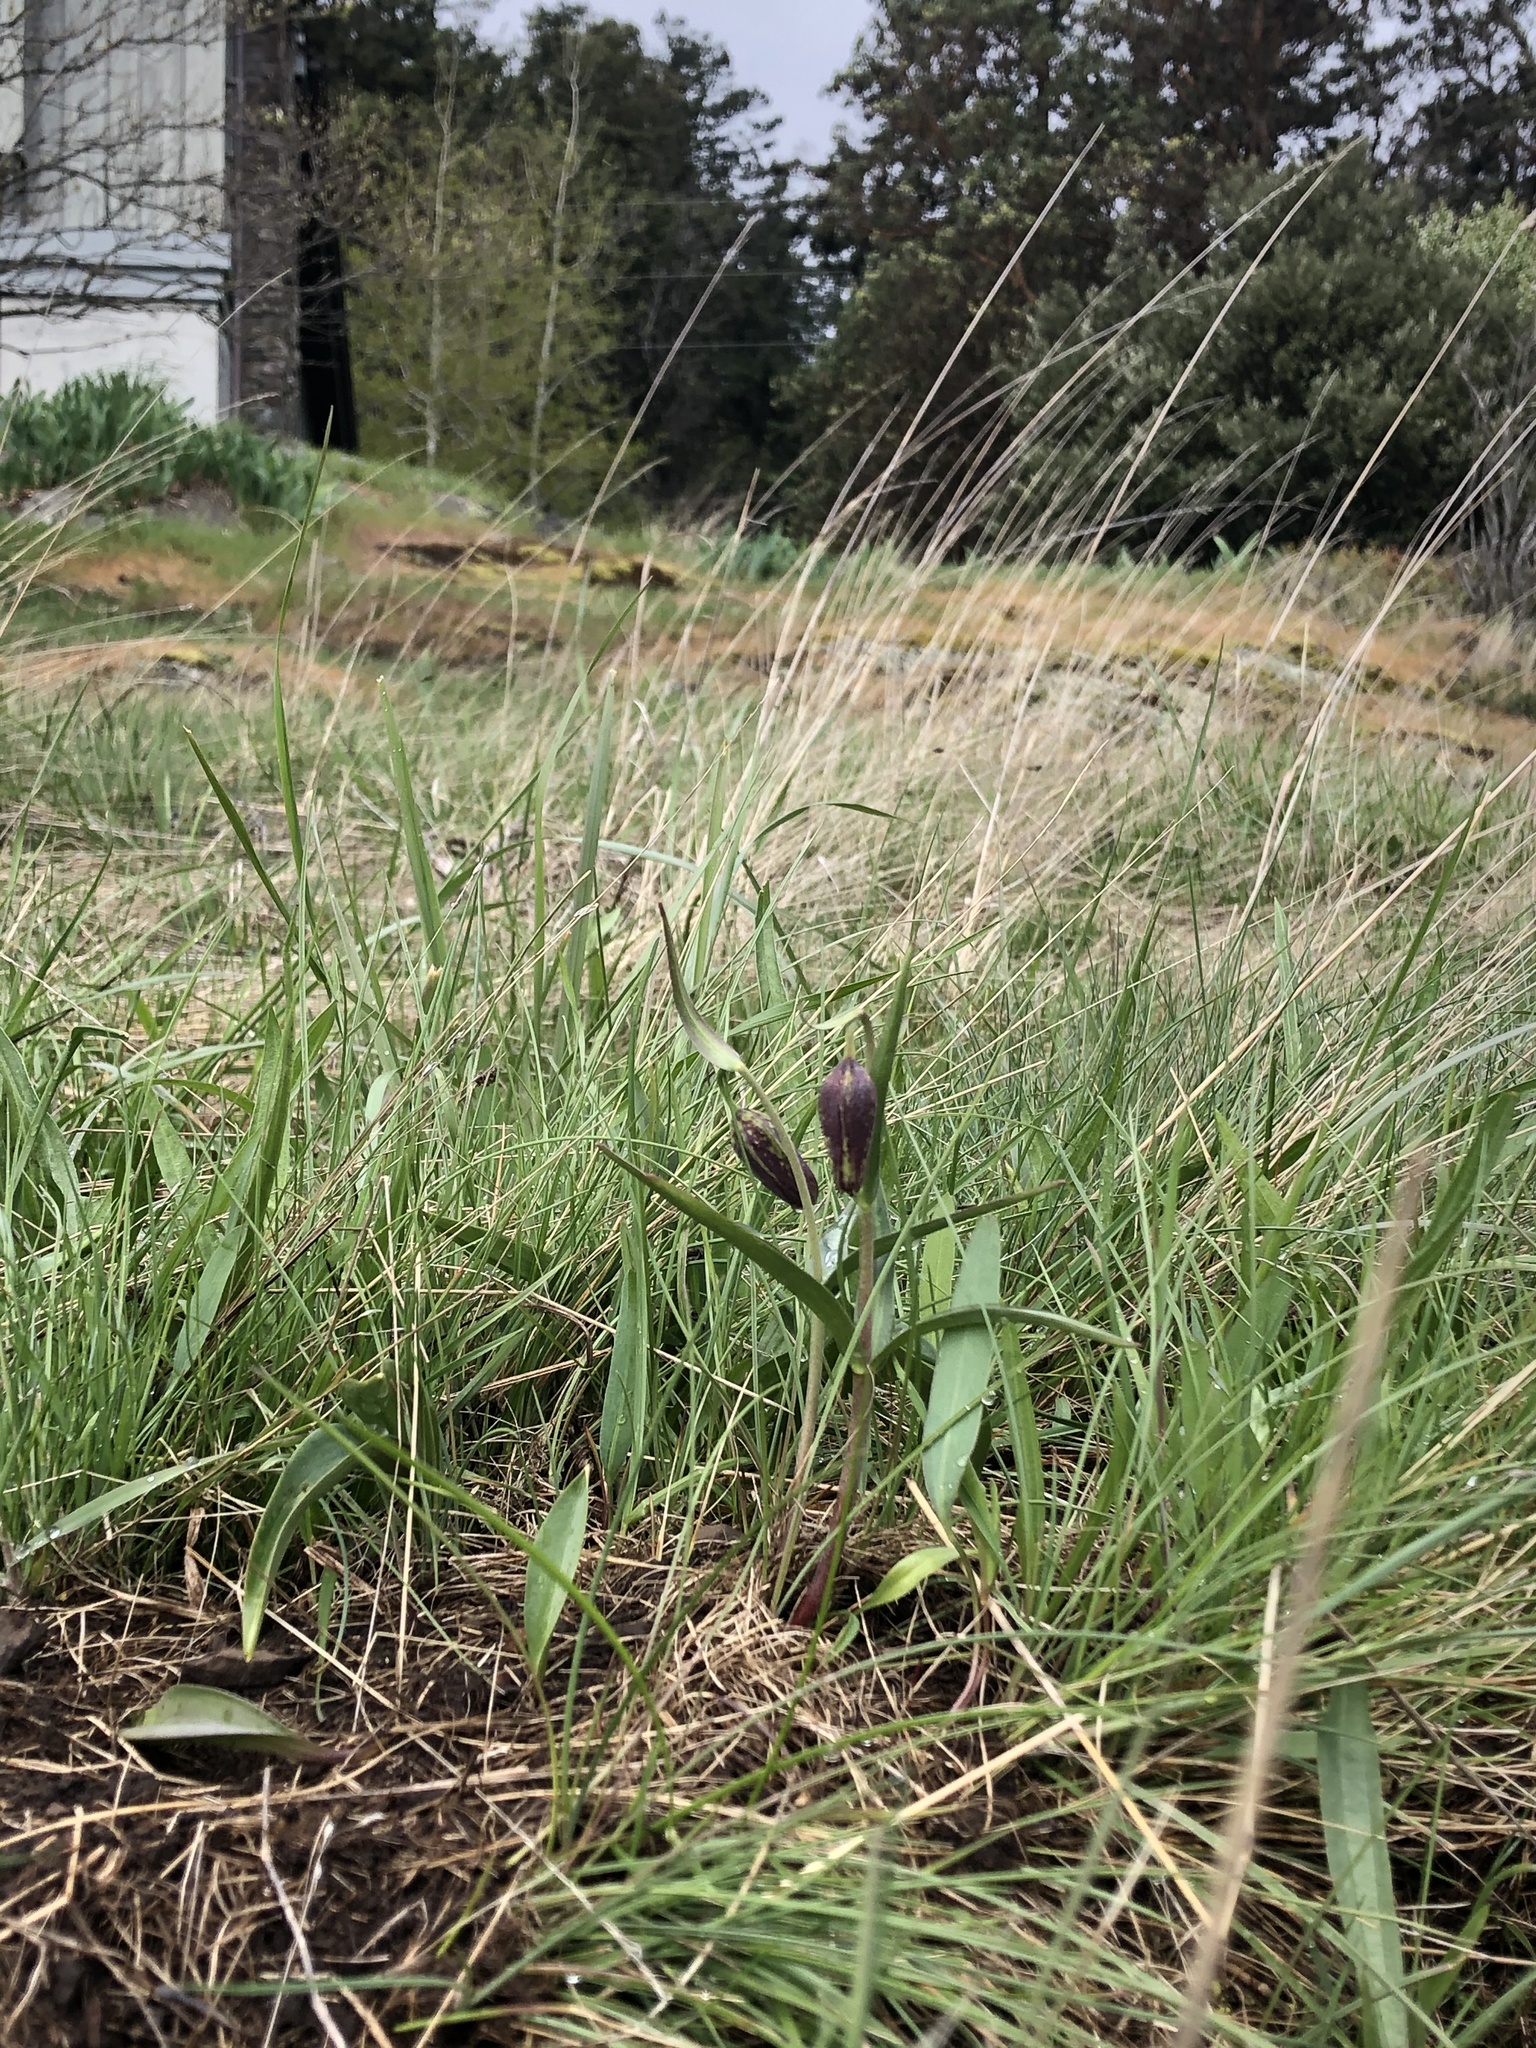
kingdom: Plantae
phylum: Tracheophyta
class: Liliopsida
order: Liliales
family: Liliaceae
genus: Fritillaria
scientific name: Fritillaria affinis
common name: Ojai fritillary
